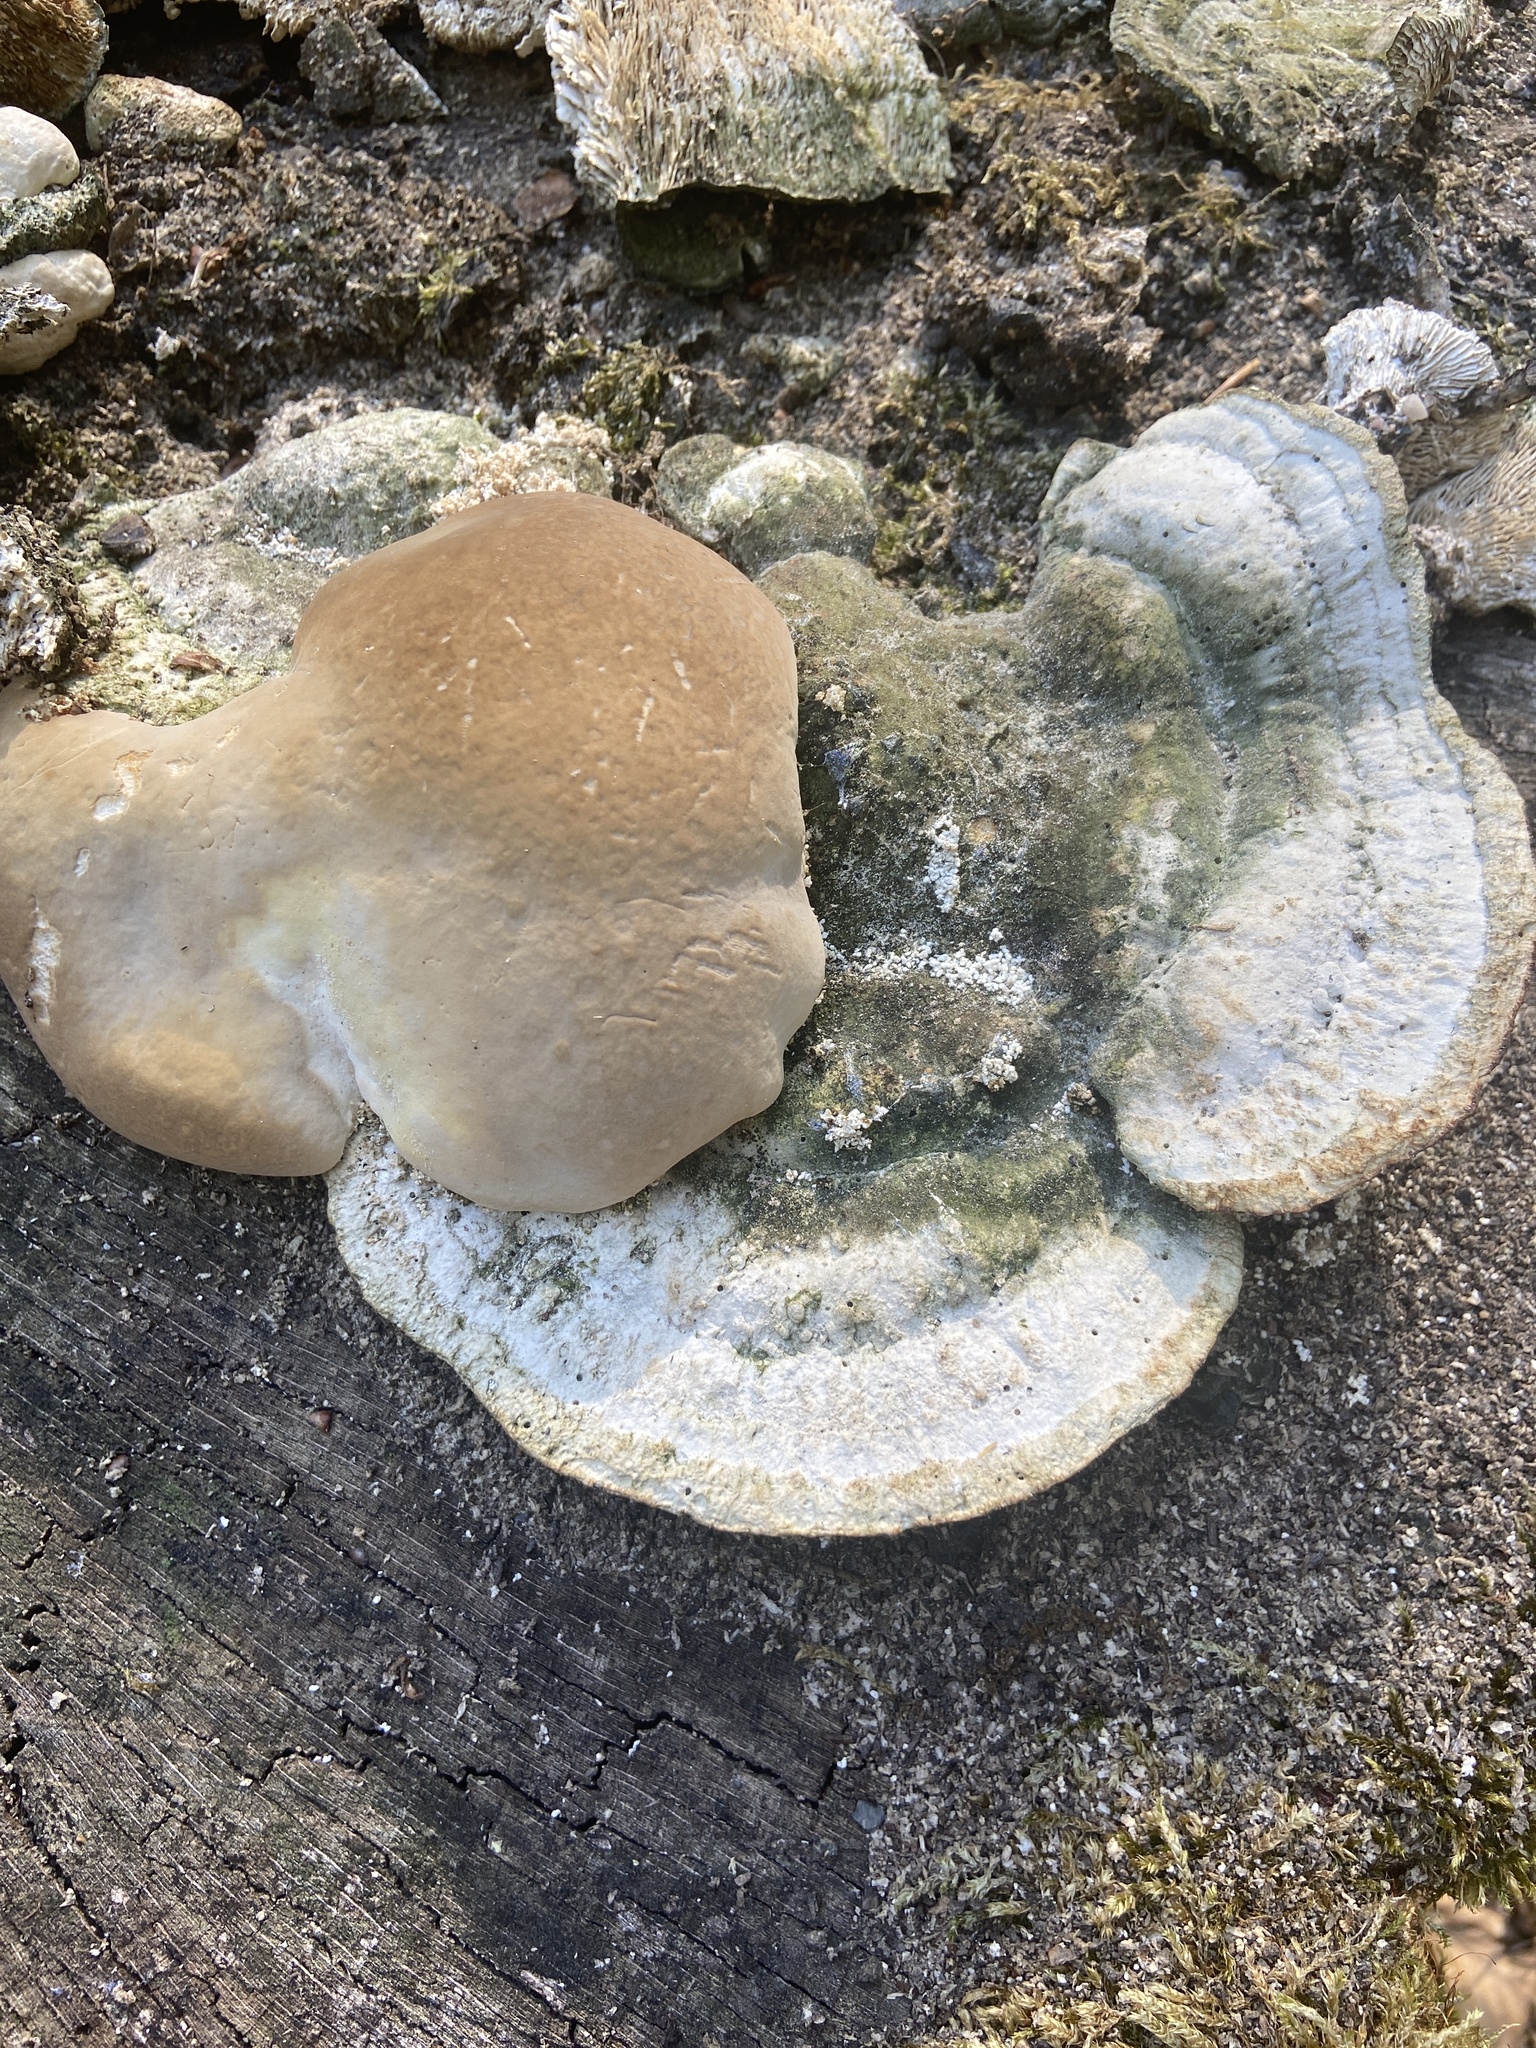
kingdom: Fungi
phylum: Basidiomycota
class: Agaricomycetes
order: Polyporales
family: Polyporaceae
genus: Trametes
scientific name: Trametes gibbosa
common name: Lumpy bracket
